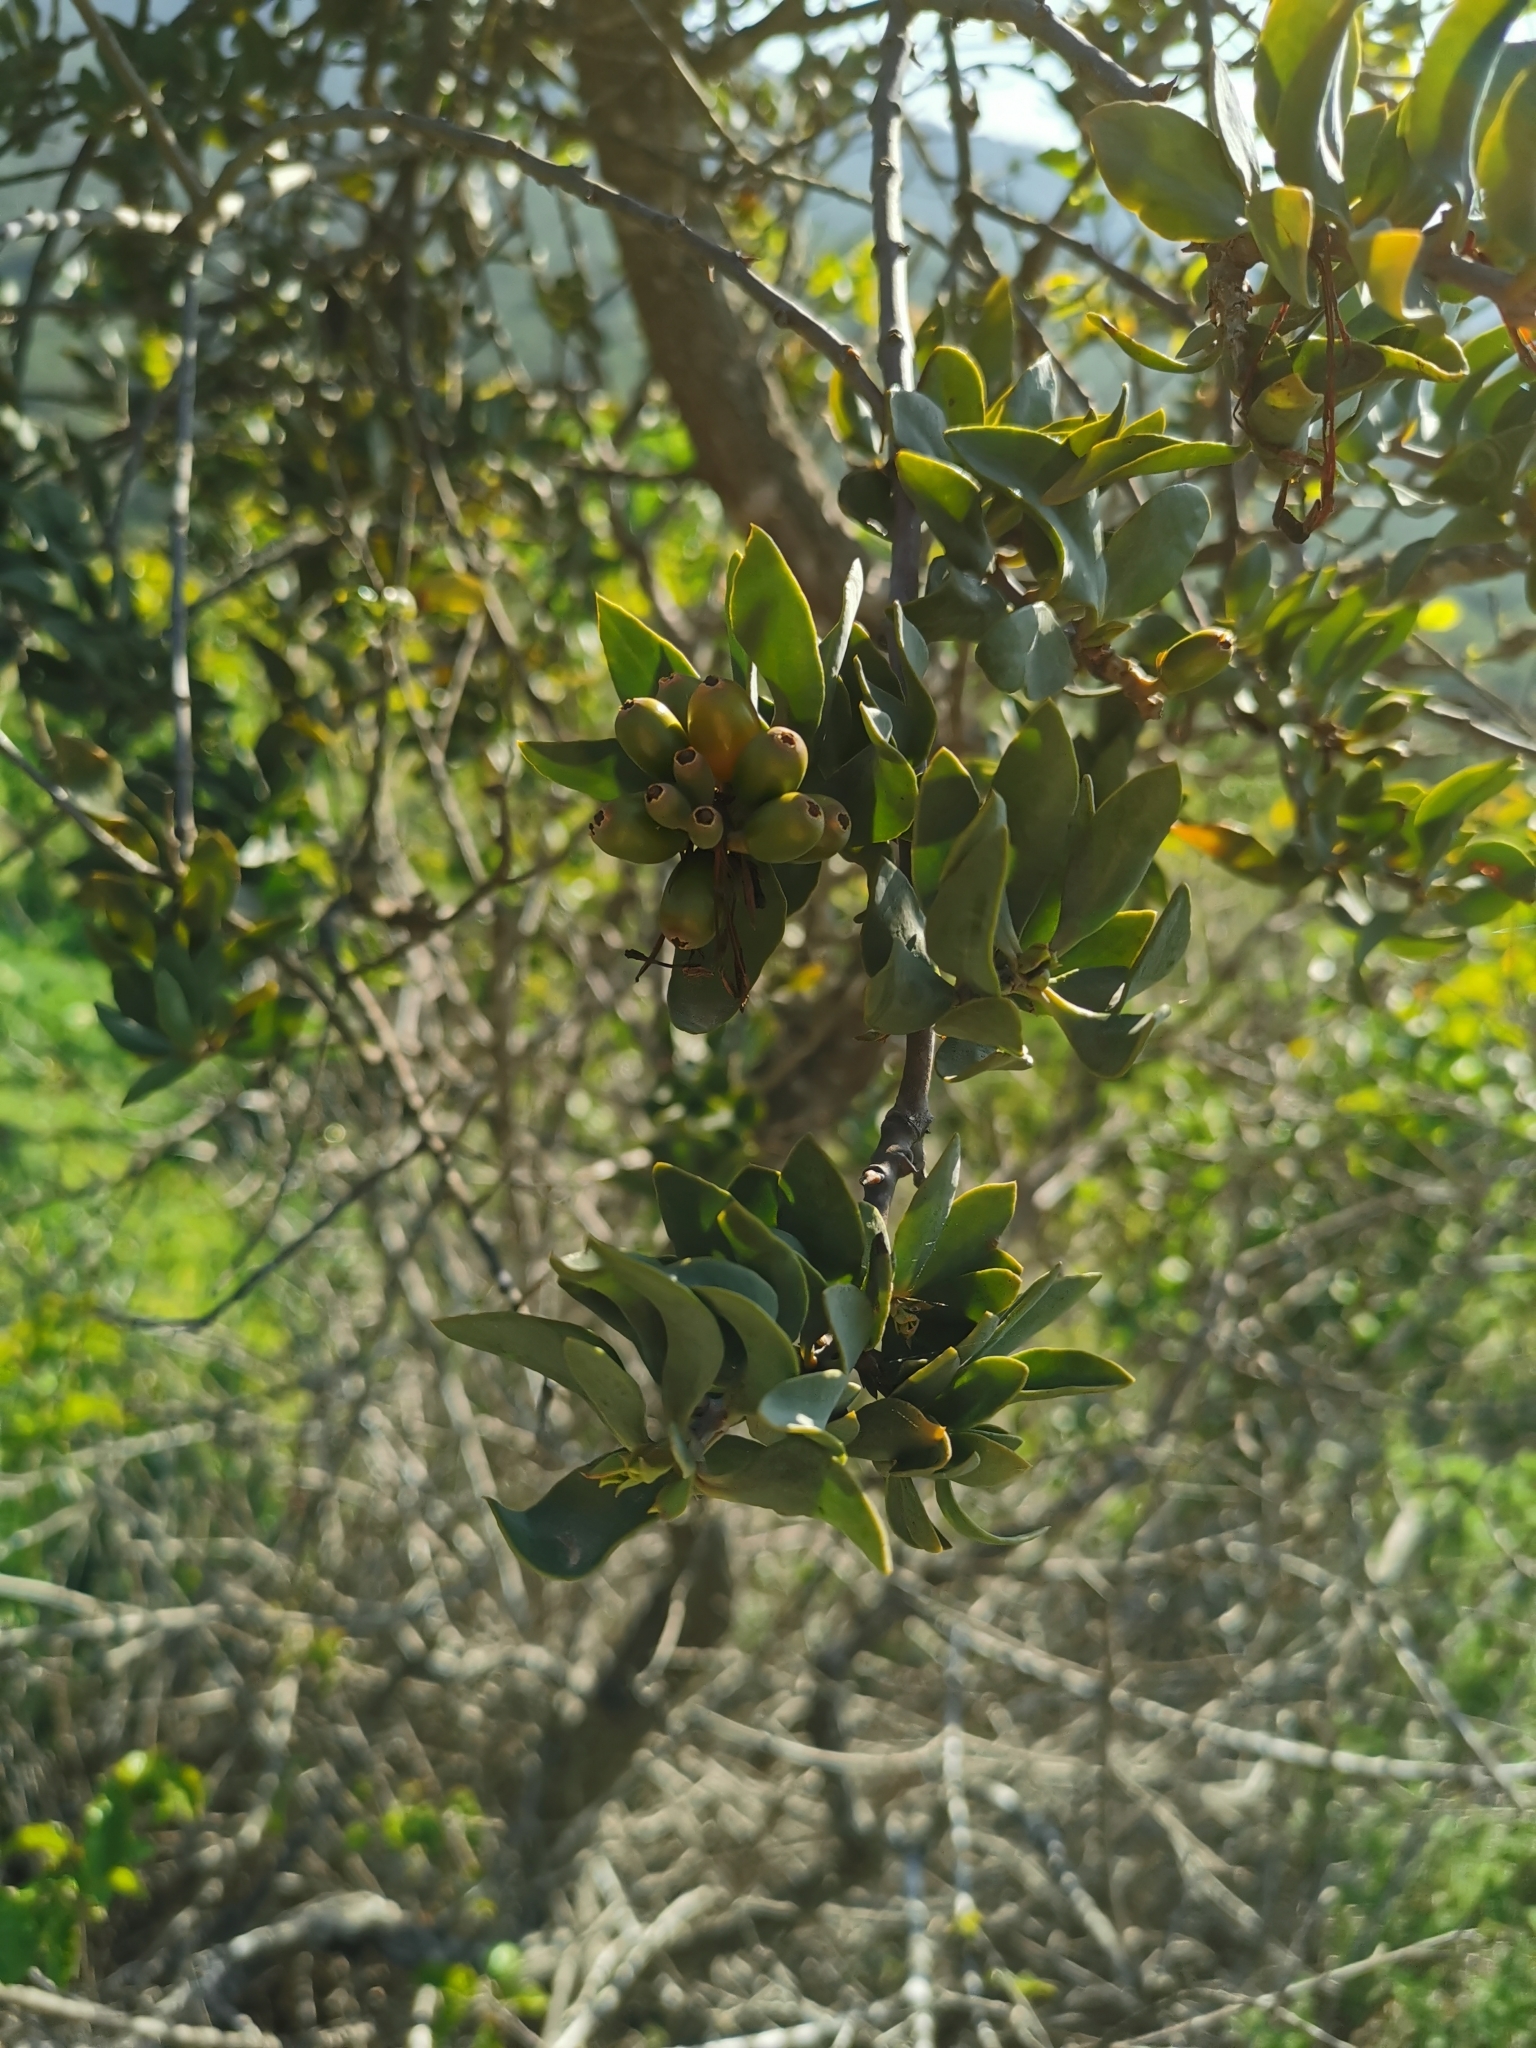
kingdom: Plantae
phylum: Tracheophyta
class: Magnoliopsida
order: Santalales
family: Loranthaceae
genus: Tristerix
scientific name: Tristerix verticillatus
